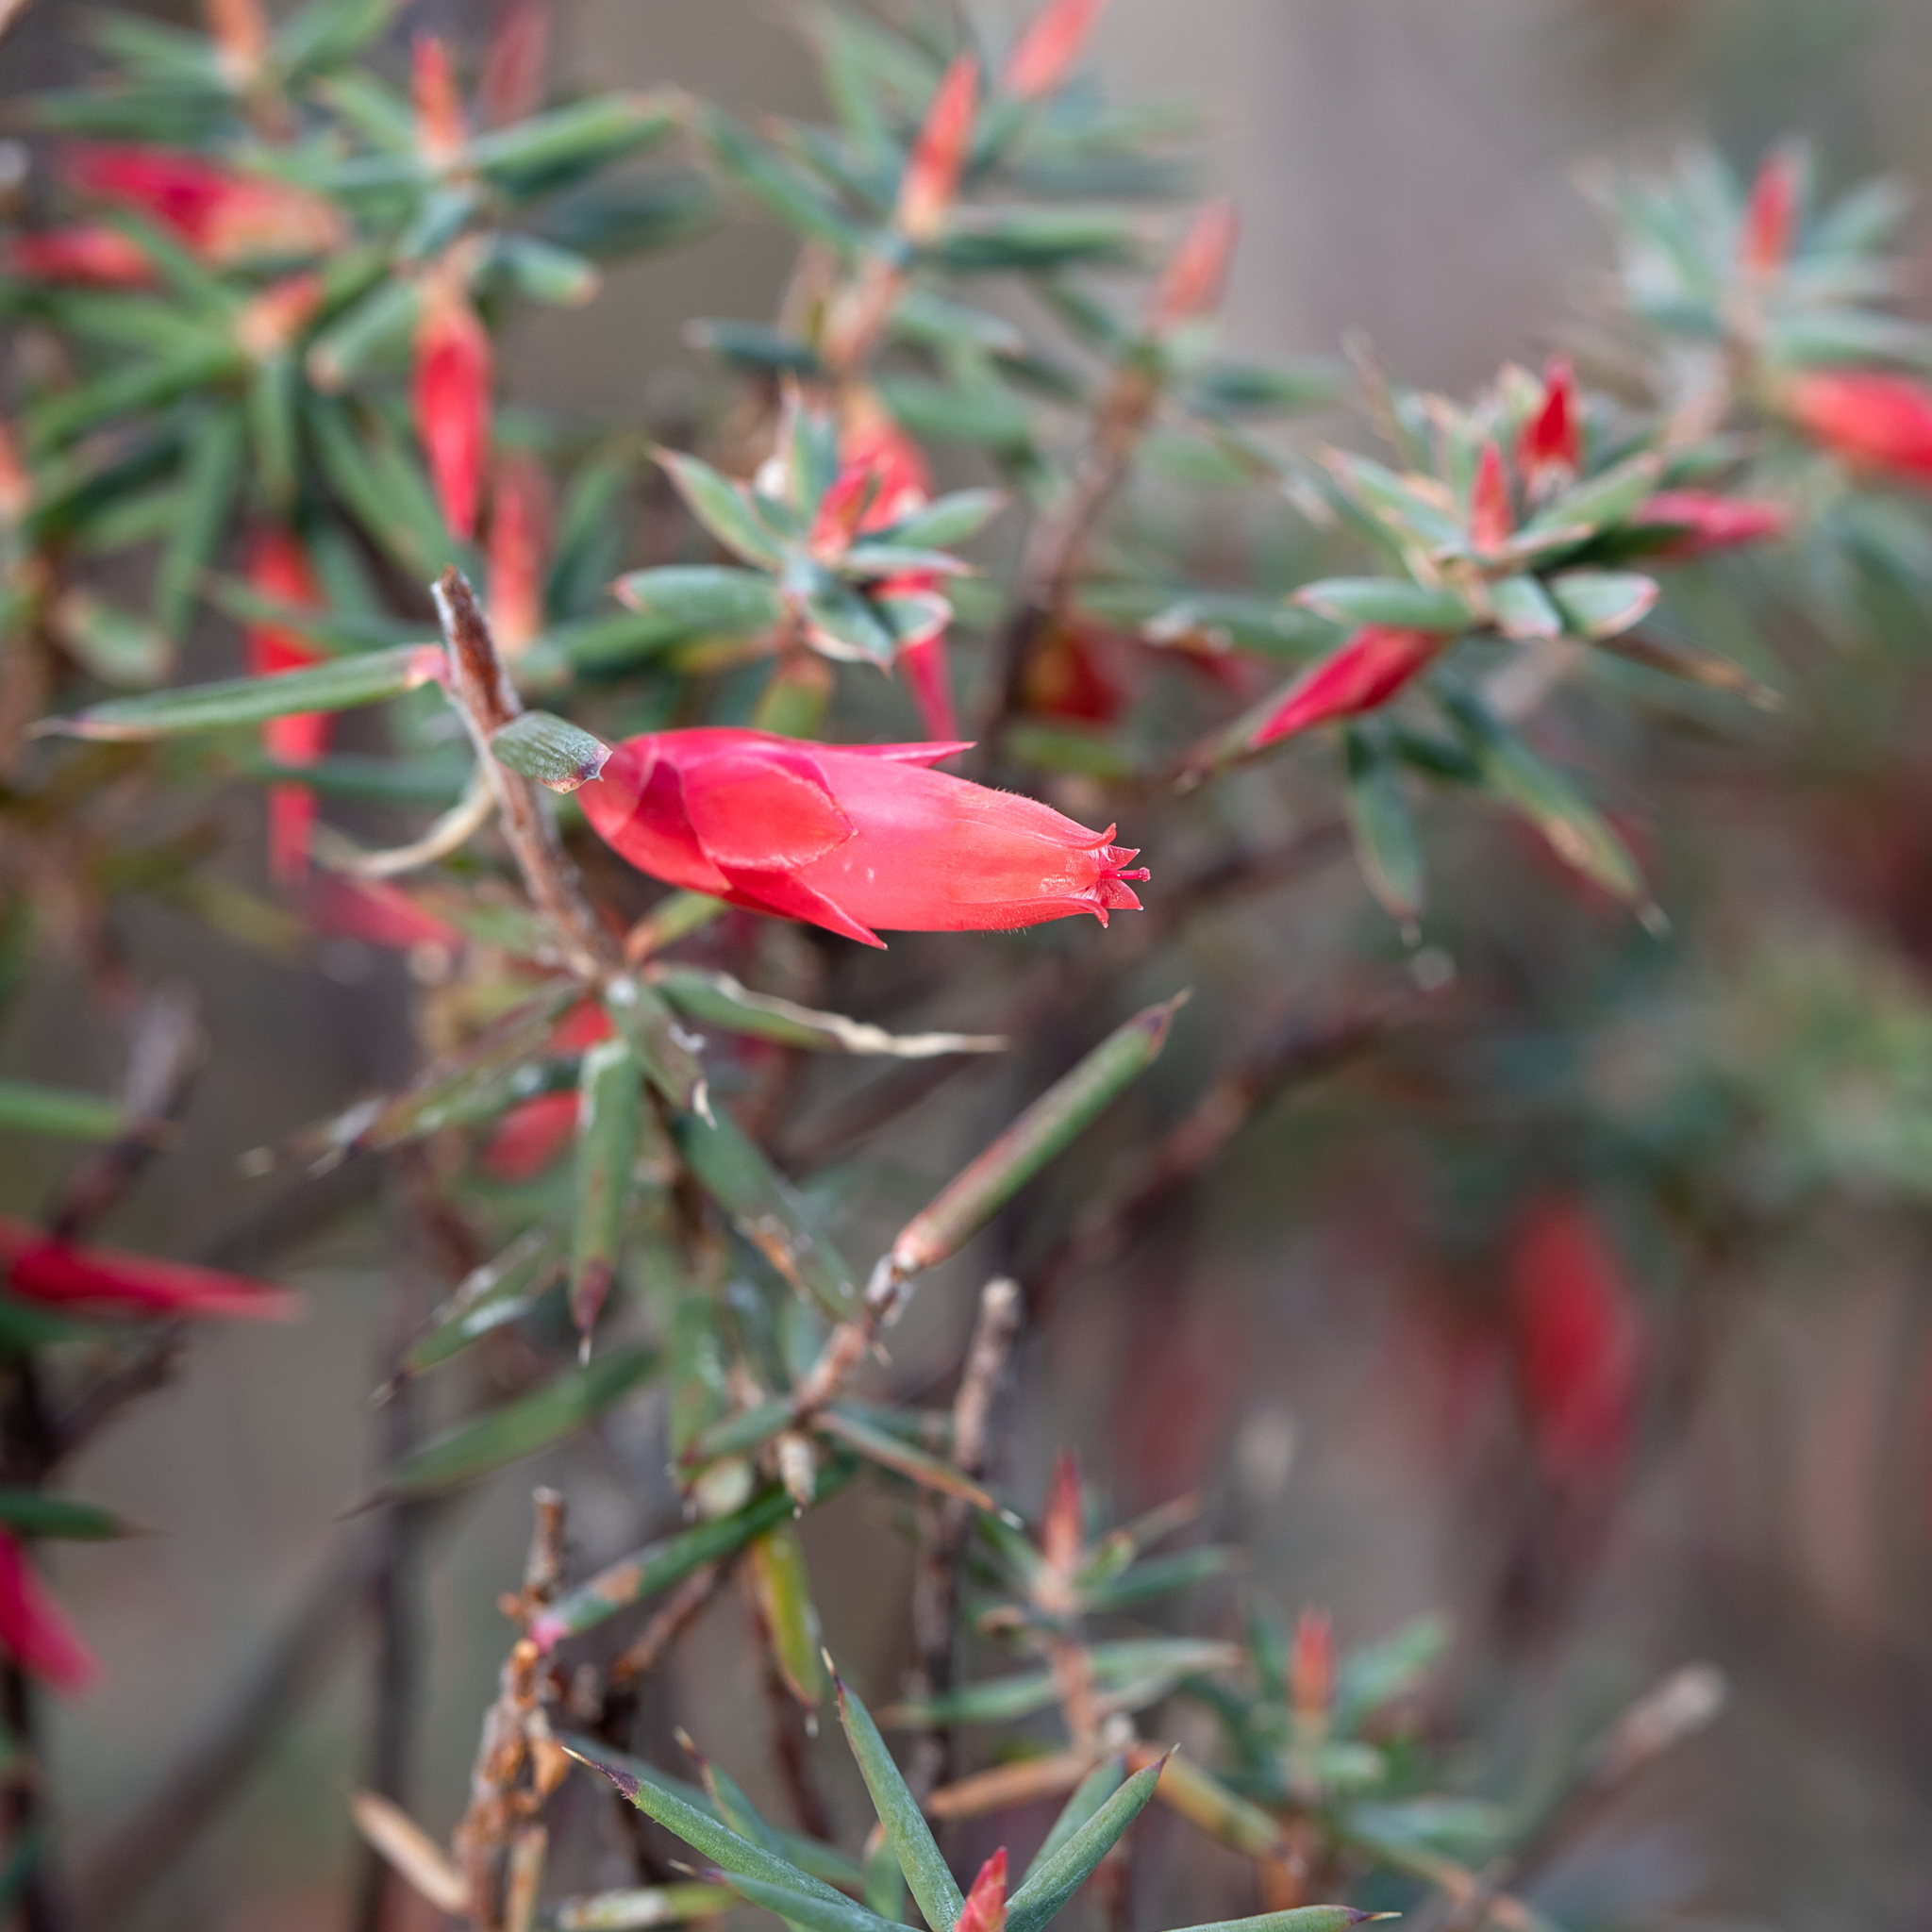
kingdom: Plantae
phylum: Tracheophyta
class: Magnoliopsida
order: Ericales
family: Ericaceae
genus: Stenanthera
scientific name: Stenanthera conostephioides
